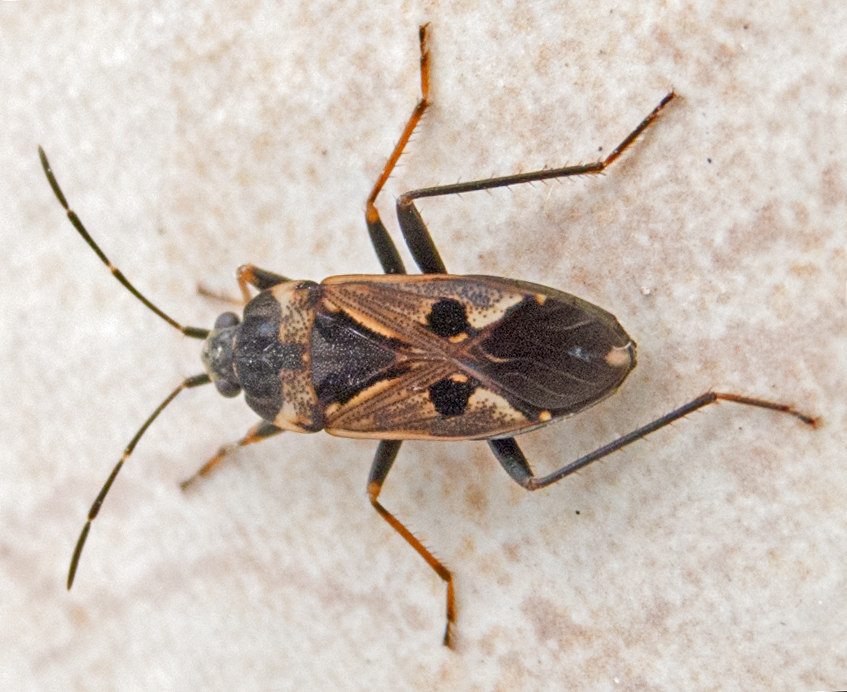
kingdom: Animalia
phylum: Arthropoda
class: Insecta
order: Hemiptera
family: Rhyparochromidae
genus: Rhyparochromus
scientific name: Rhyparochromus vulgaris
